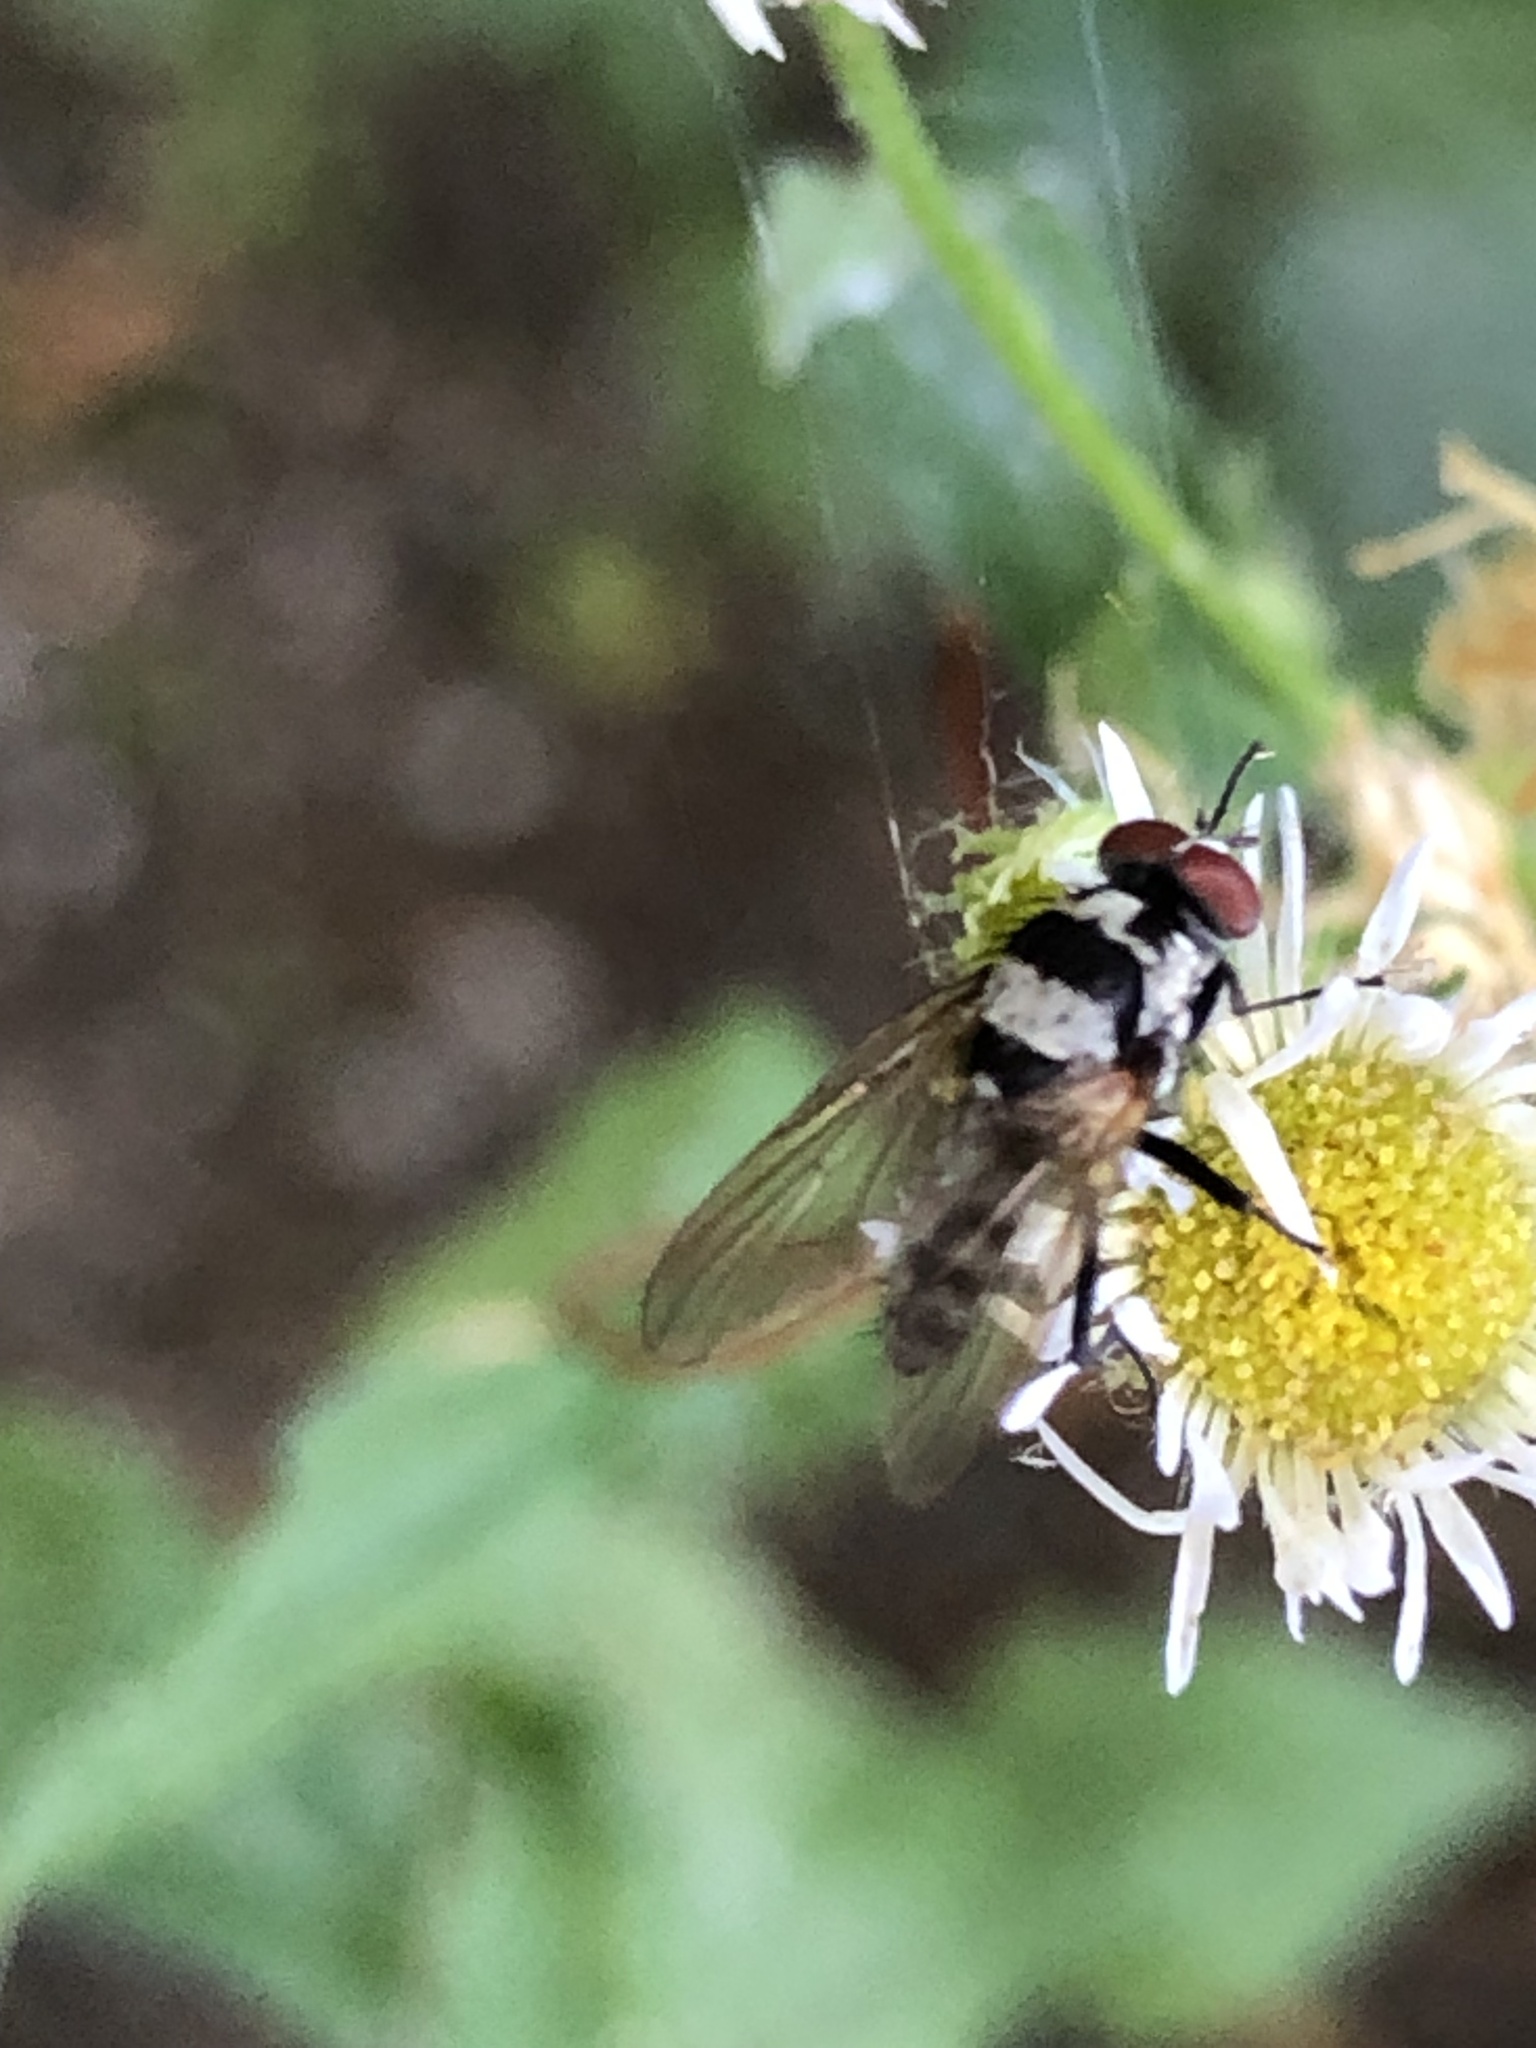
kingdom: Animalia
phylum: Arthropoda
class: Insecta
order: Diptera
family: Anthomyiidae
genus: Anthomyia
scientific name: Anthomyia oculifera
